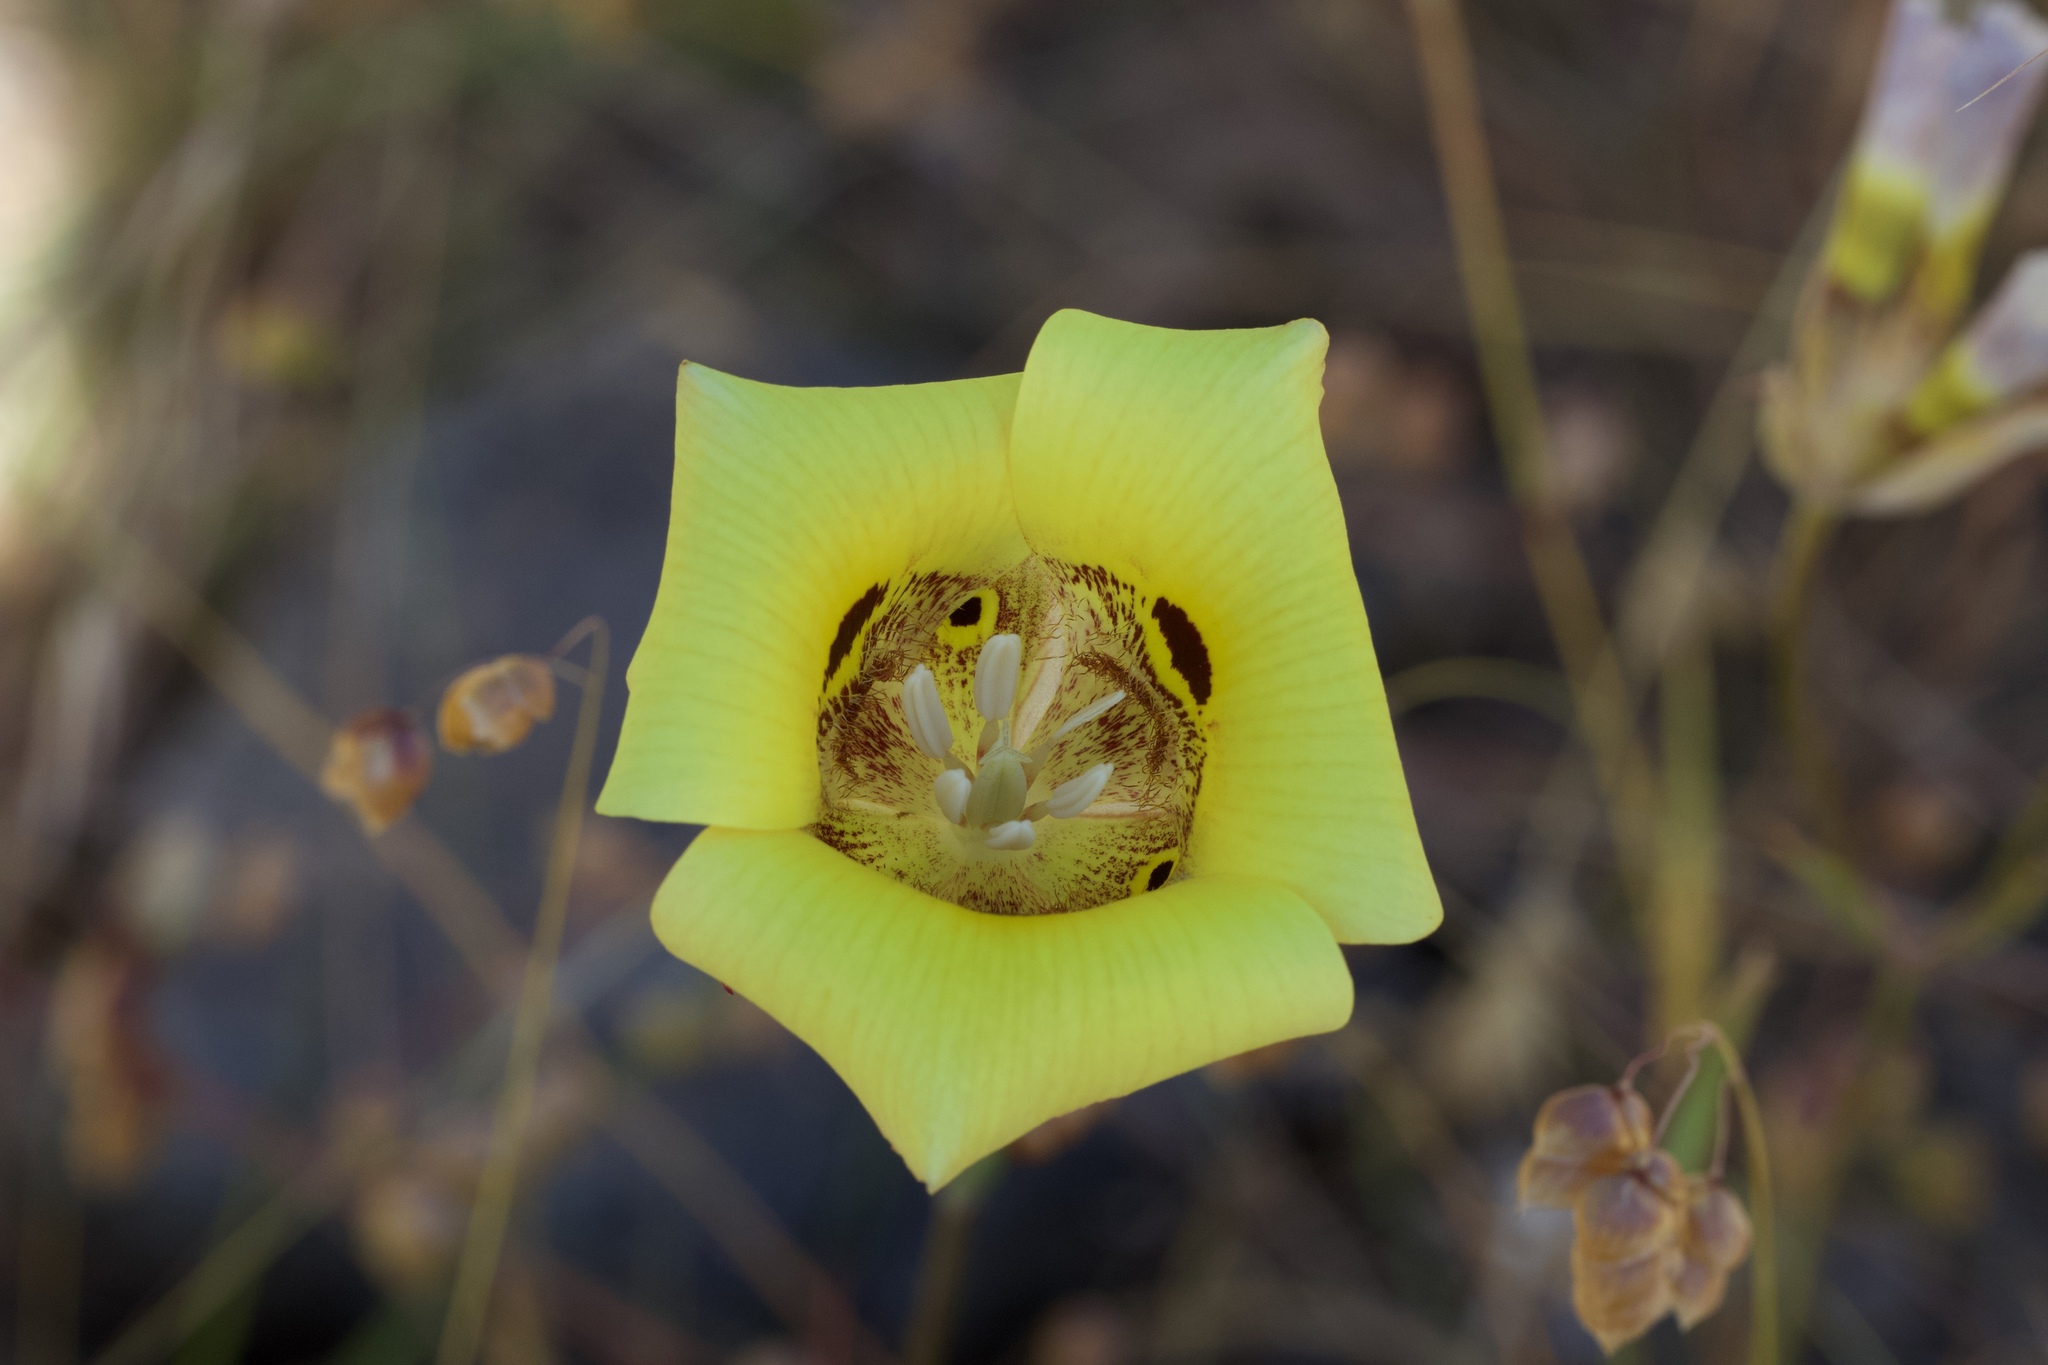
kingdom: Plantae
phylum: Tracheophyta
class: Liliopsida
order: Liliales
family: Liliaceae
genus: Calochortus
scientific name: Calochortus superbus
